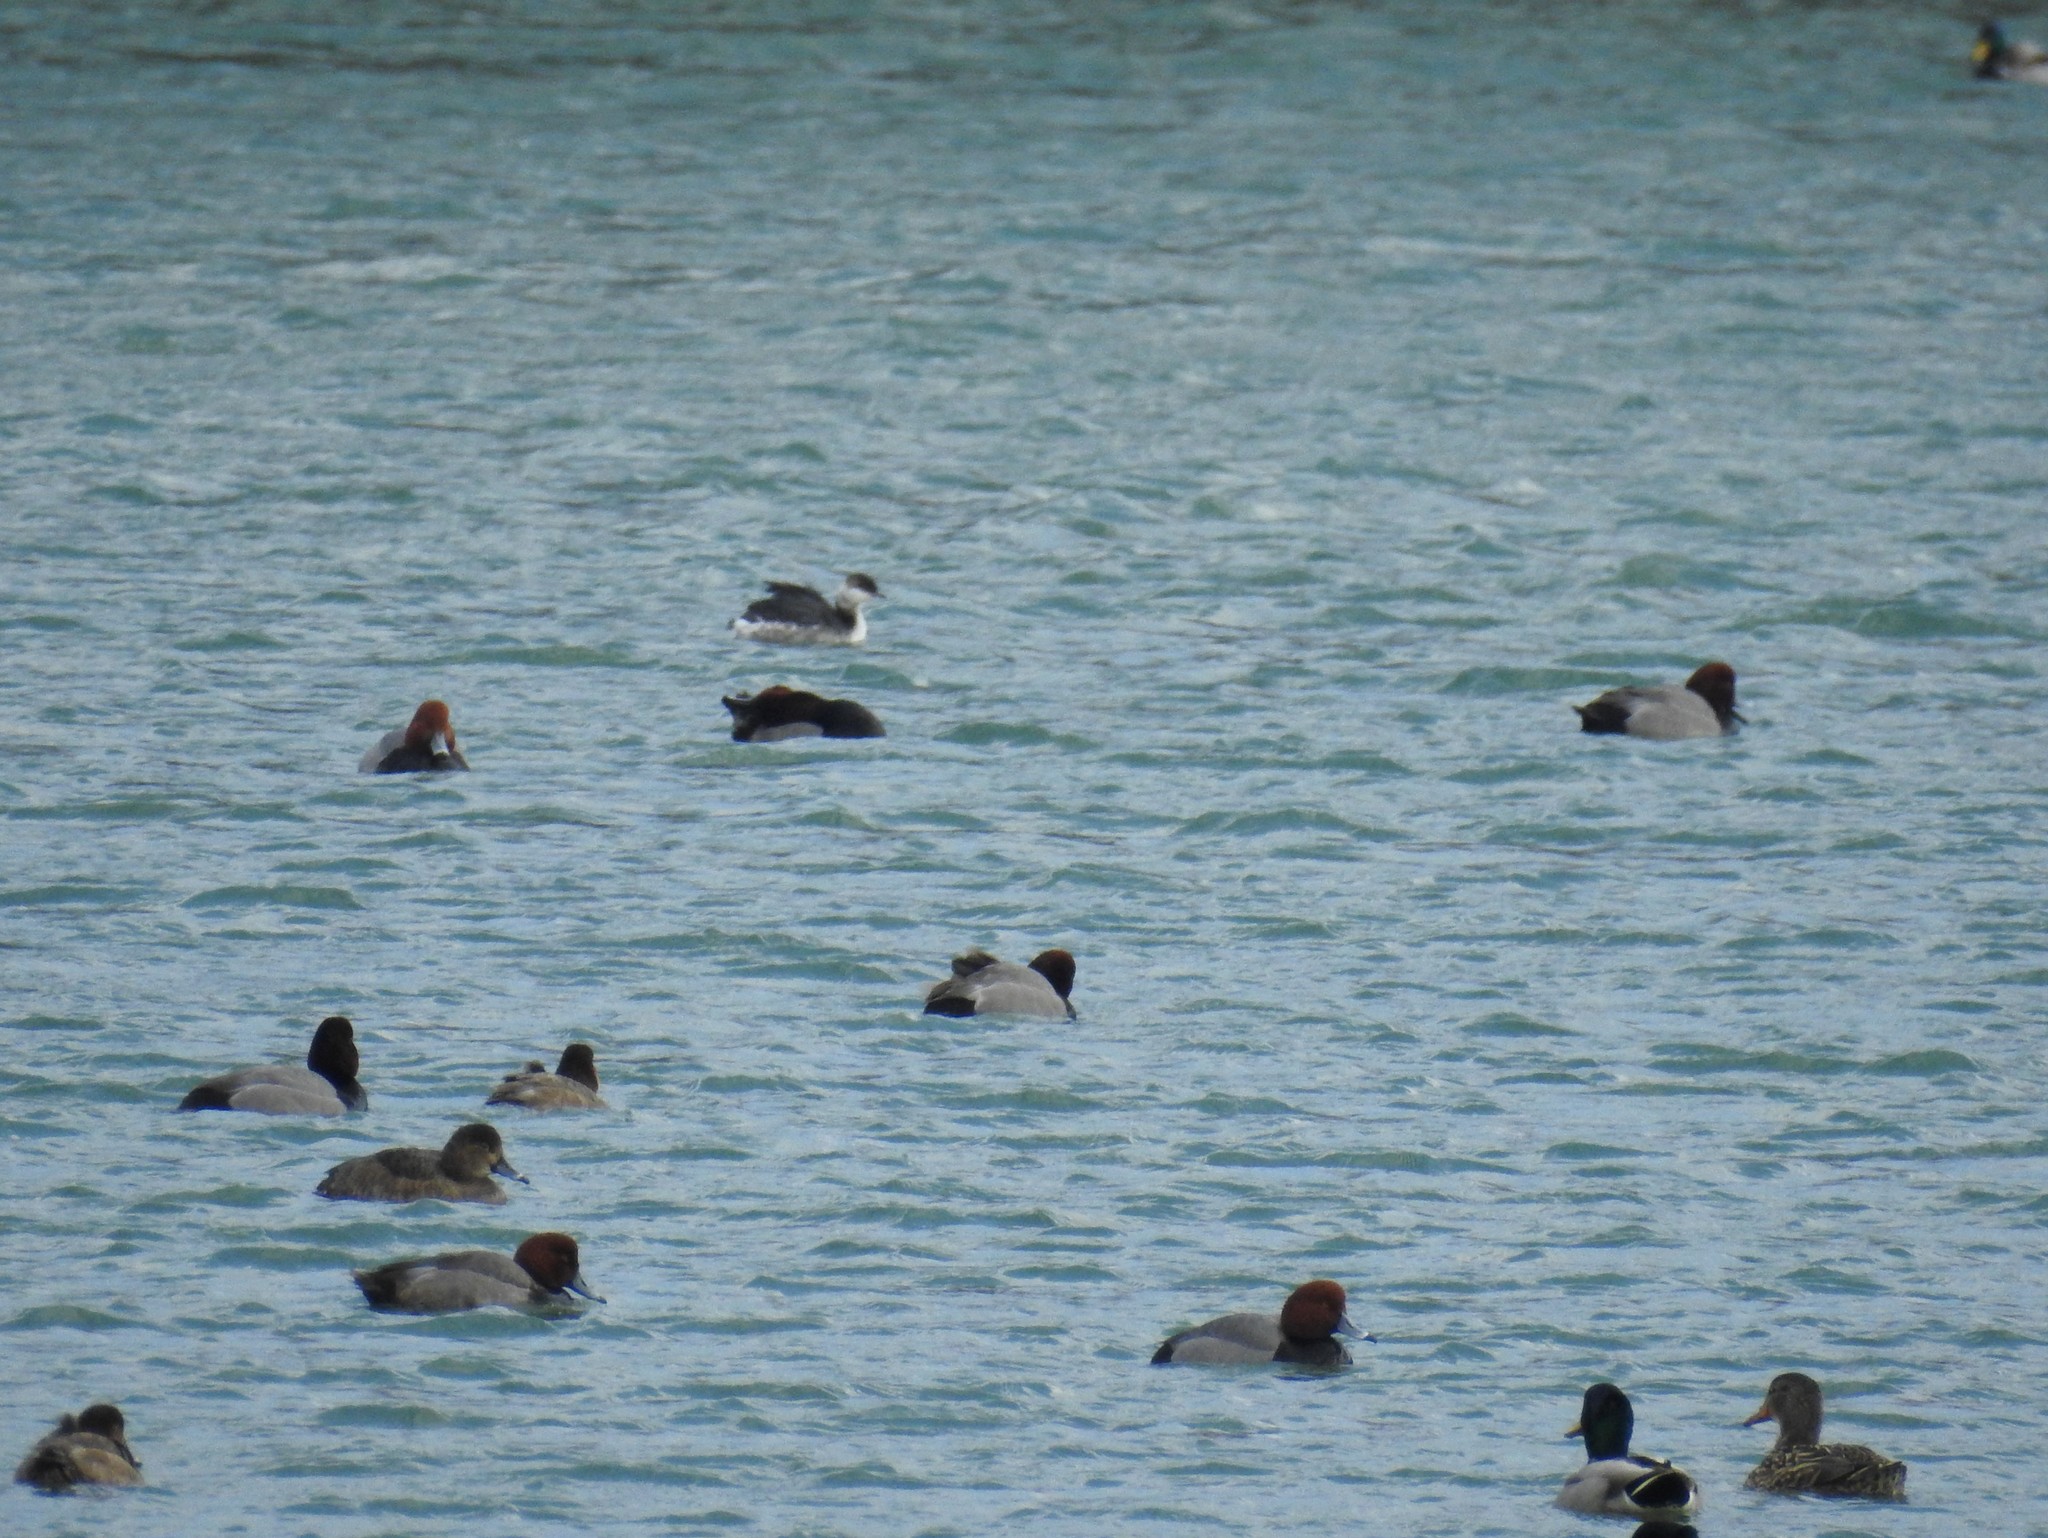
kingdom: Animalia
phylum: Chordata
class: Aves
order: Podicipediformes
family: Podicipedidae
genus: Podiceps
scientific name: Podiceps auritus
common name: Horned grebe
